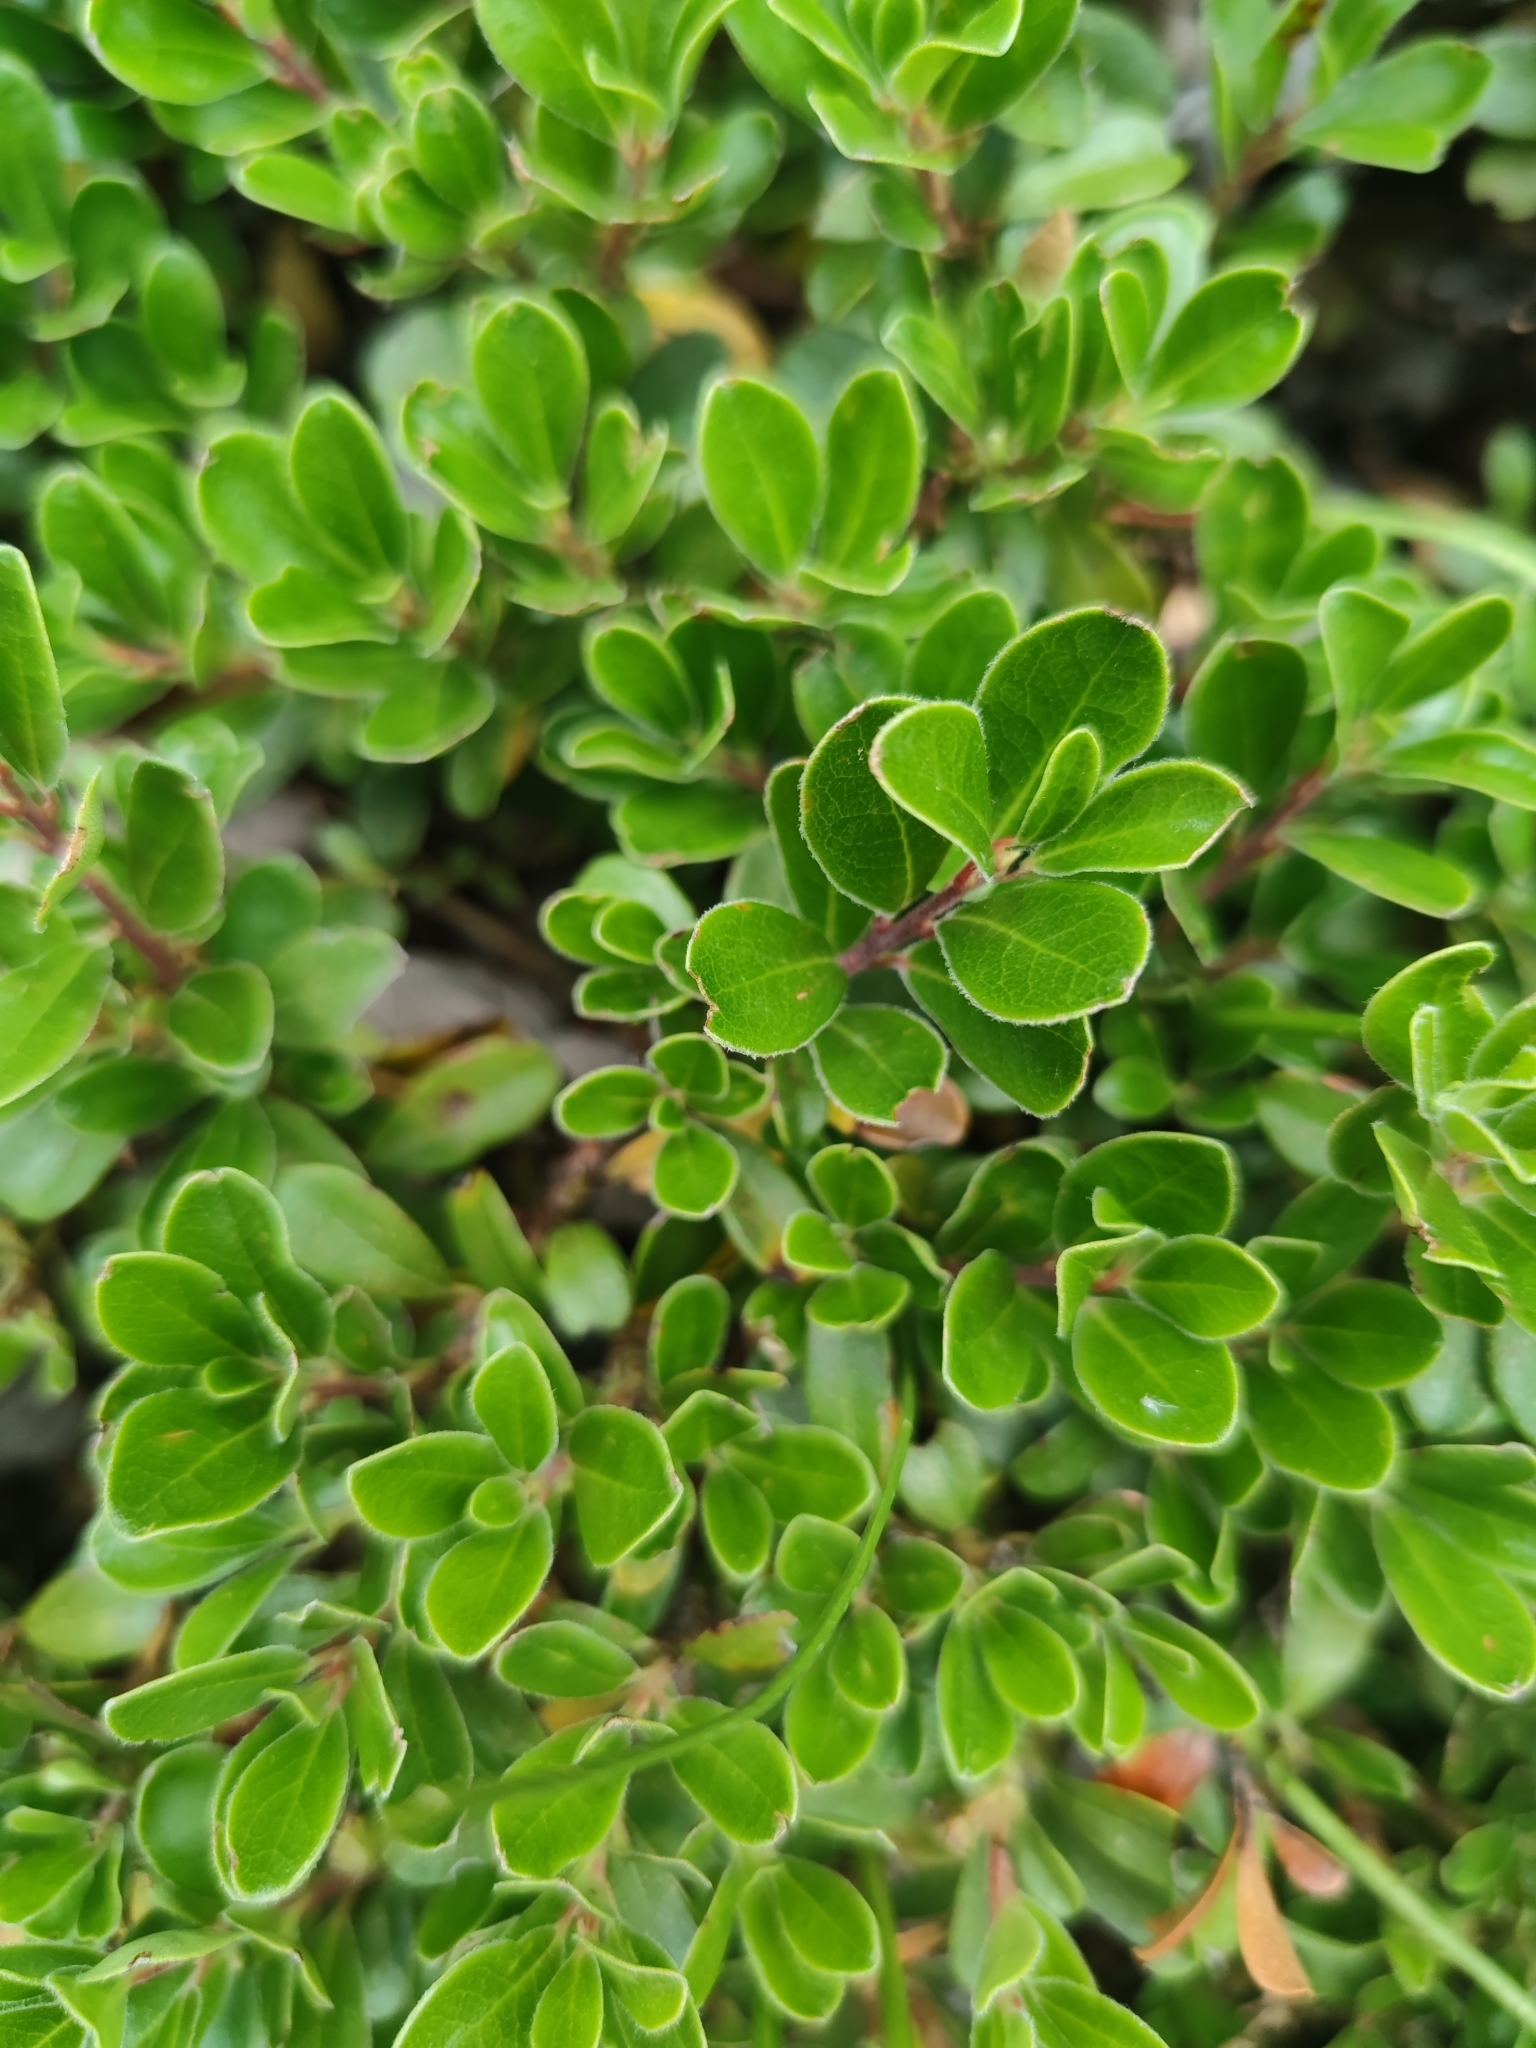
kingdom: Plantae
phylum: Tracheophyta
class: Magnoliopsida
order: Ericales
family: Ericaceae
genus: Arctostaphylos
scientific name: Arctostaphylos uva-ursi
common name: Bearberry
